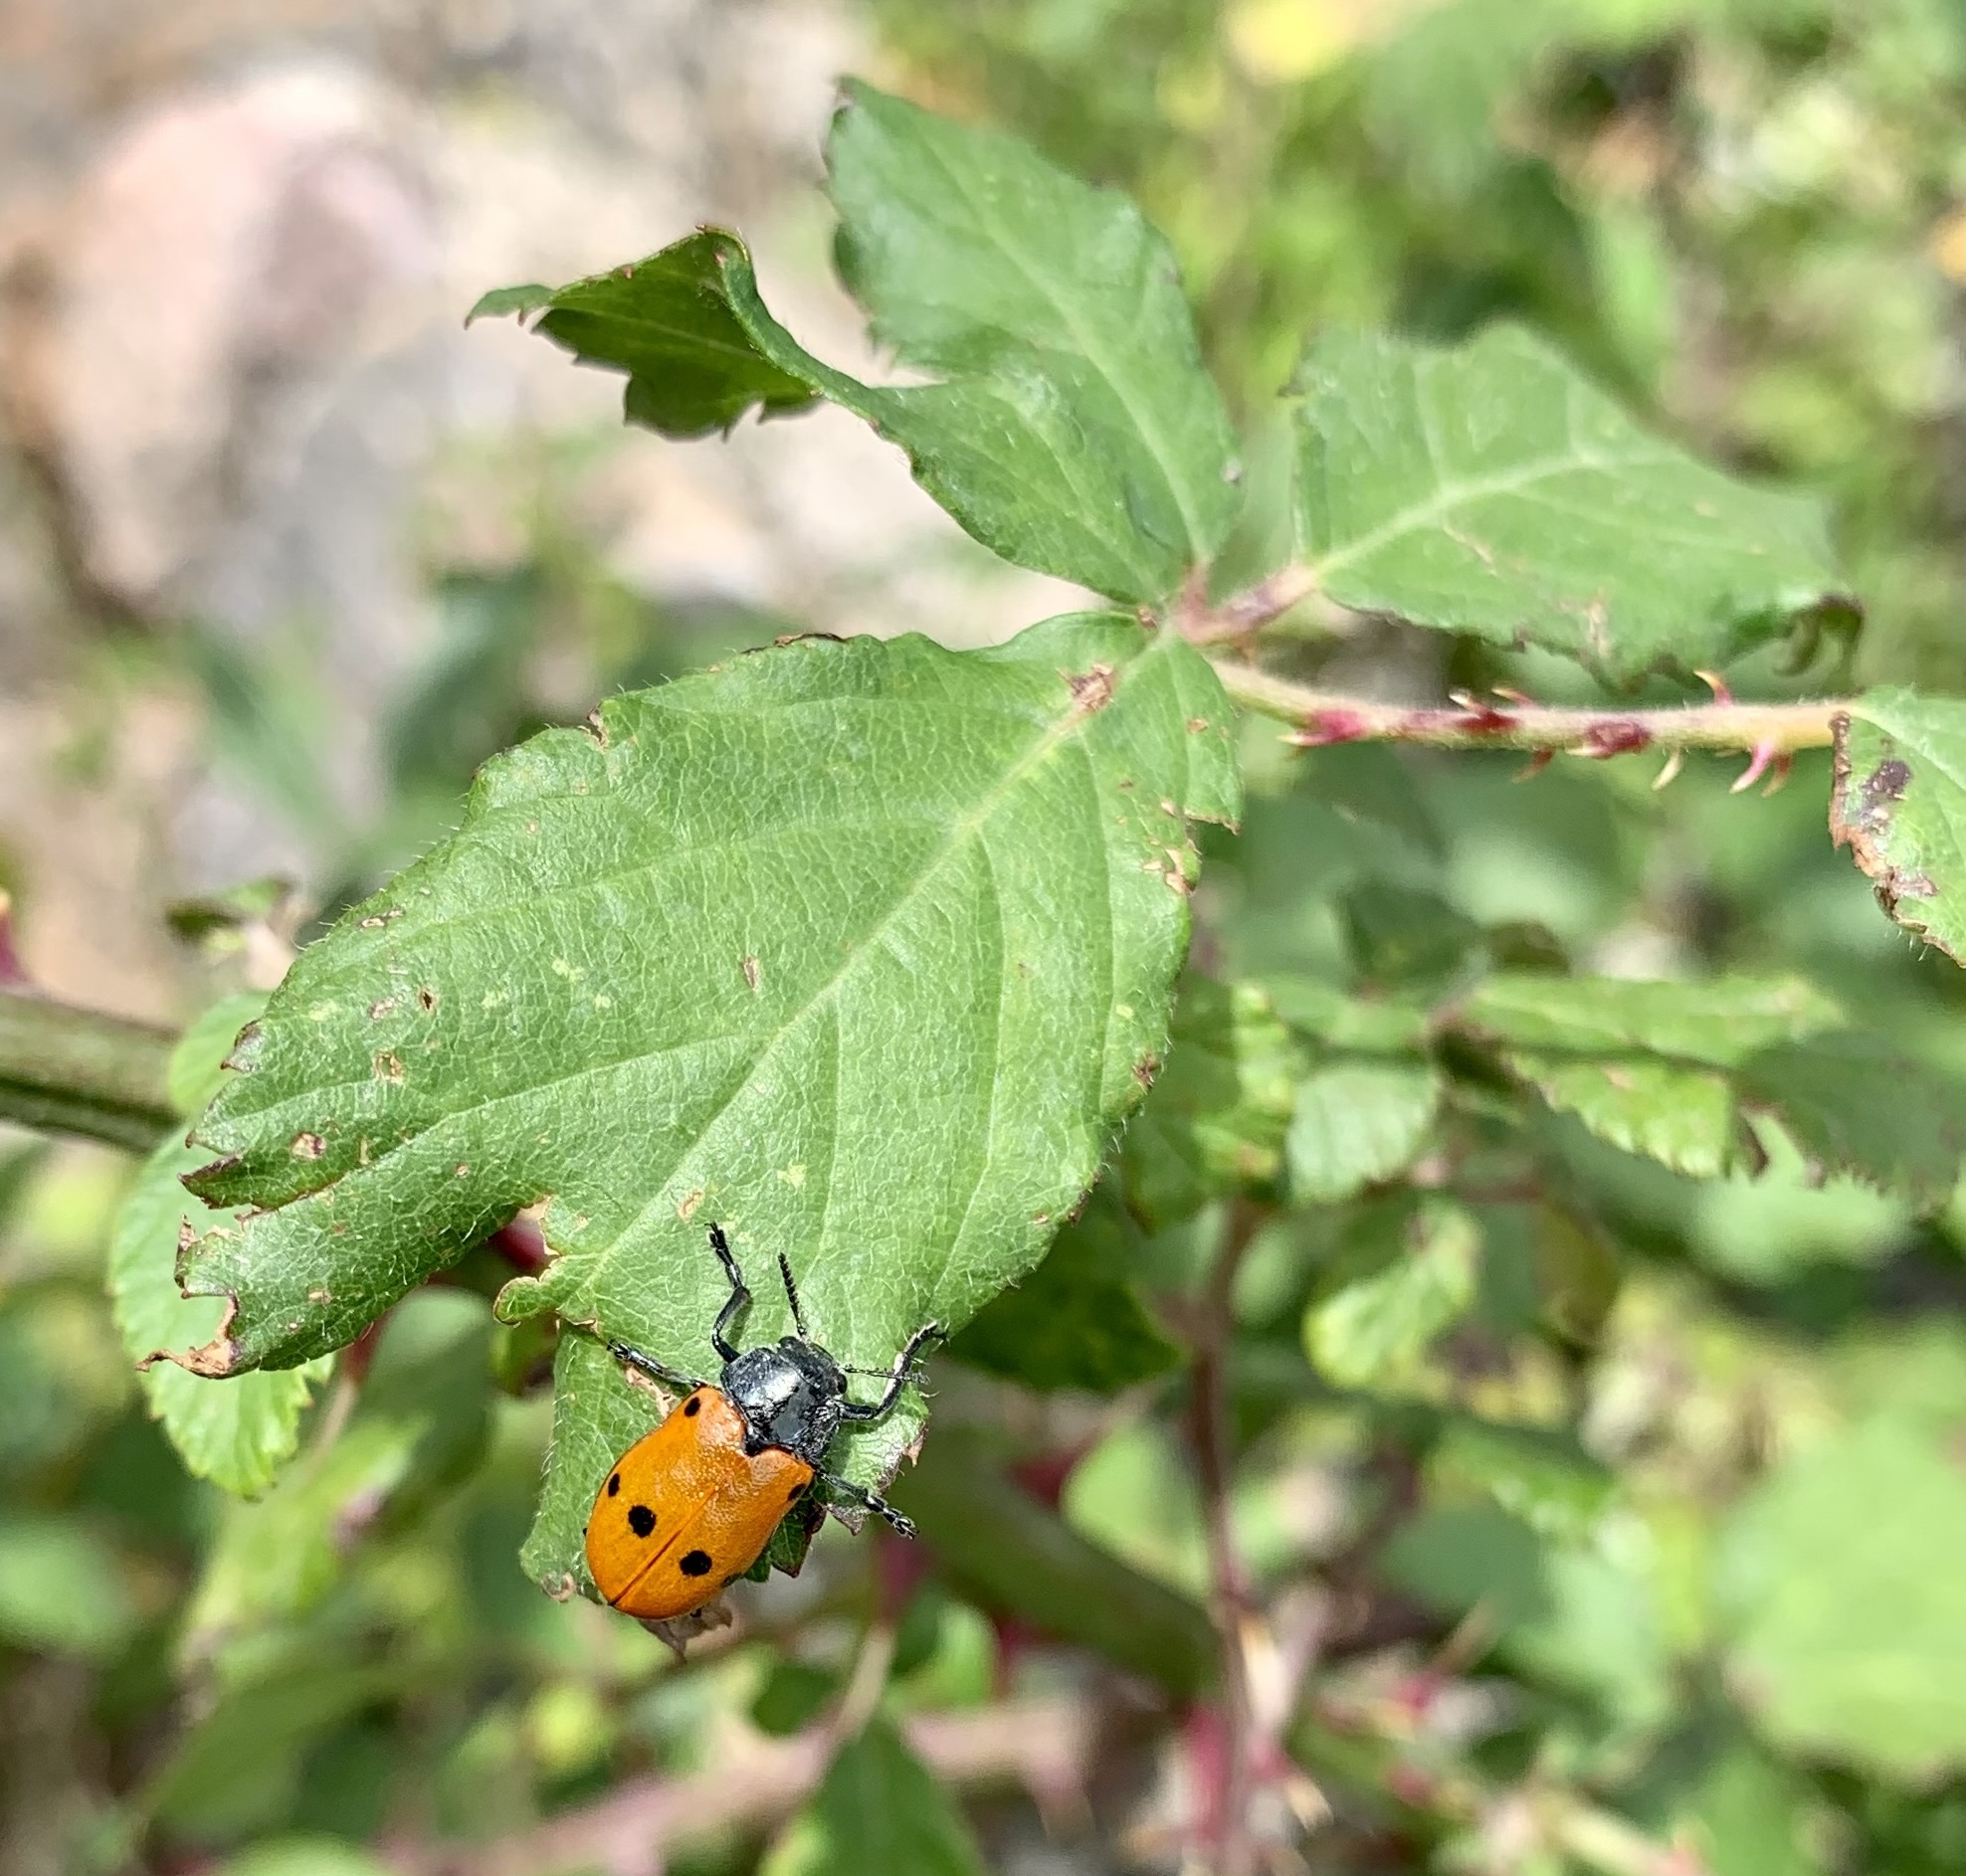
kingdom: Animalia
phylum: Arthropoda
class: Insecta
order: Coleoptera
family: Chrysomelidae
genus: Lachnaia
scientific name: Lachnaia paradoxa
